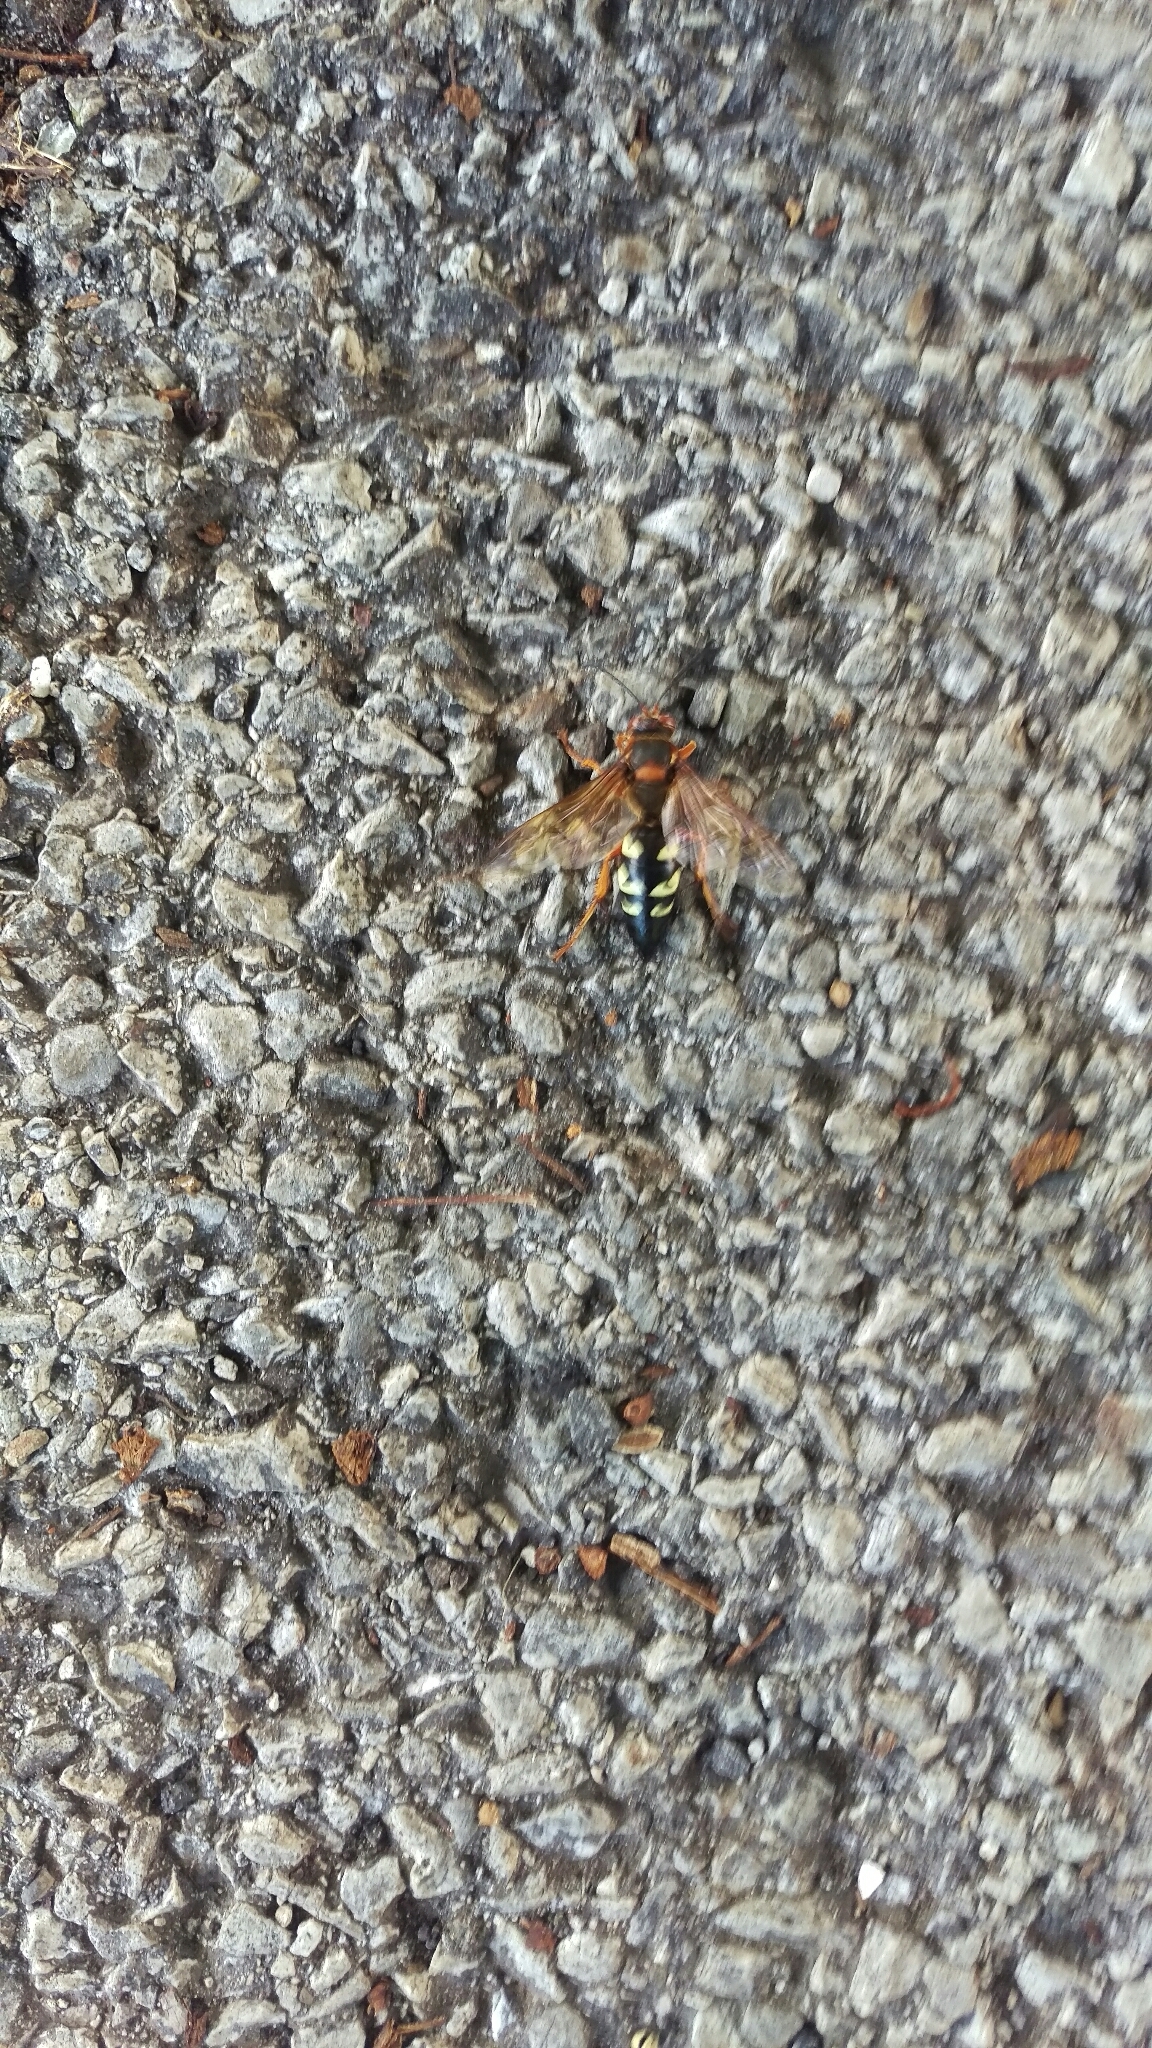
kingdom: Animalia
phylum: Arthropoda
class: Insecta
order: Hymenoptera
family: Crabronidae
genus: Sphecius
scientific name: Sphecius speciosus
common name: Cicada killer
